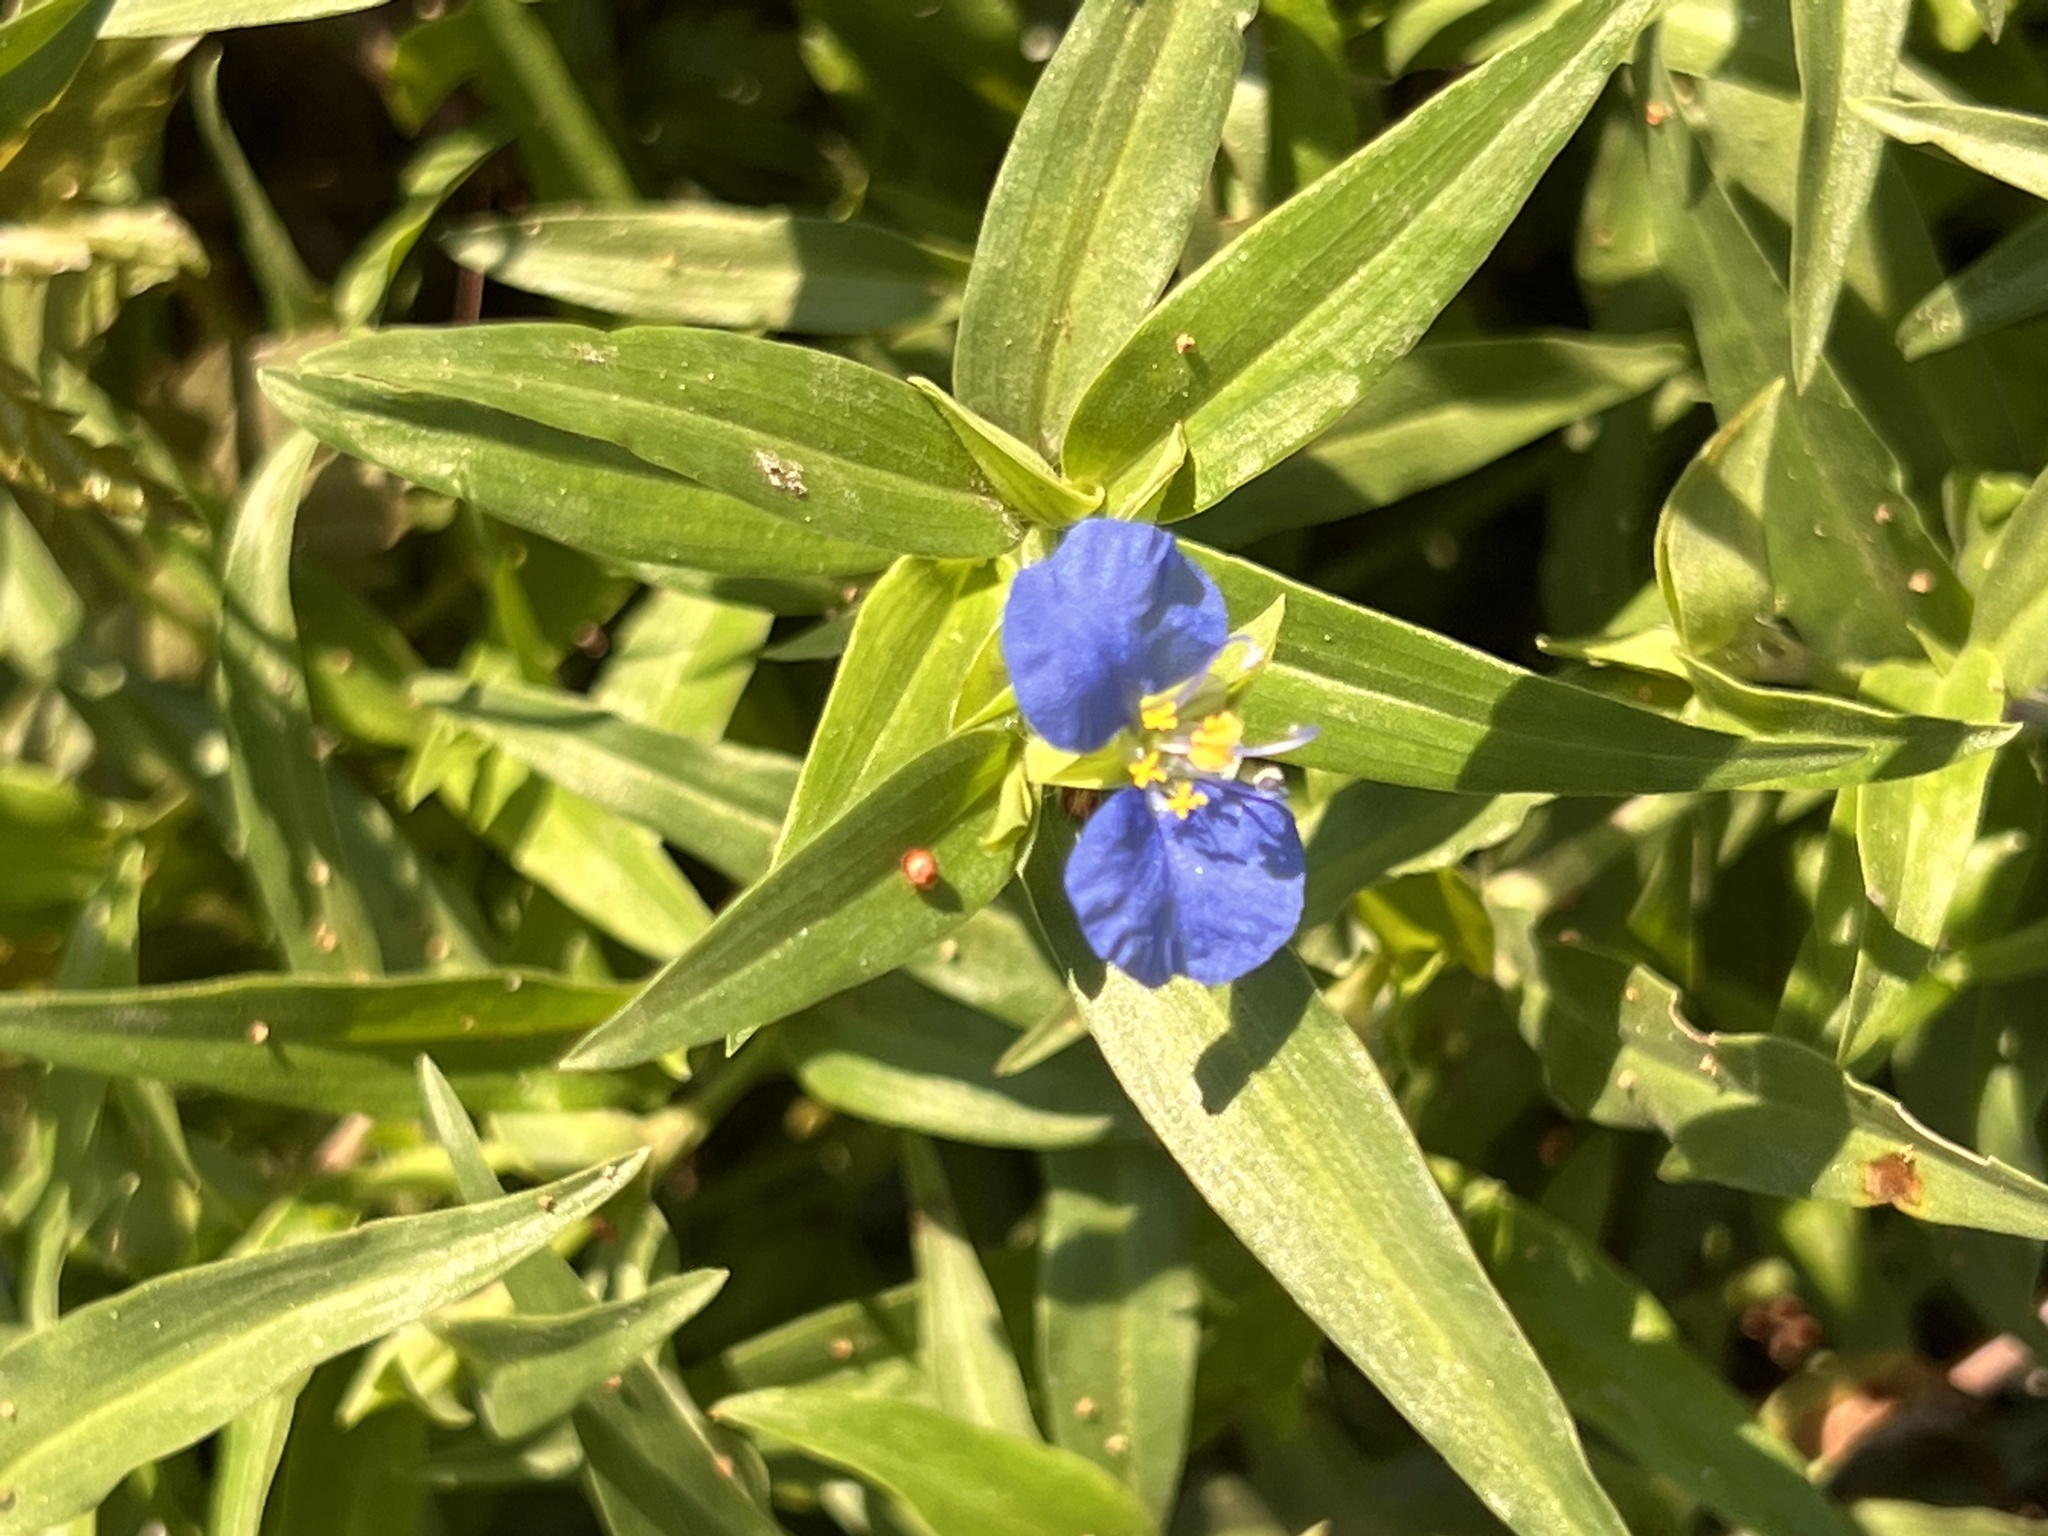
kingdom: Plantae
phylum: Tracheophyta
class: Liliopsida
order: Commelinales
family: Commelinaceae
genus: Commelina
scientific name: Commelina erecta
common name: Blousel blommetjie
